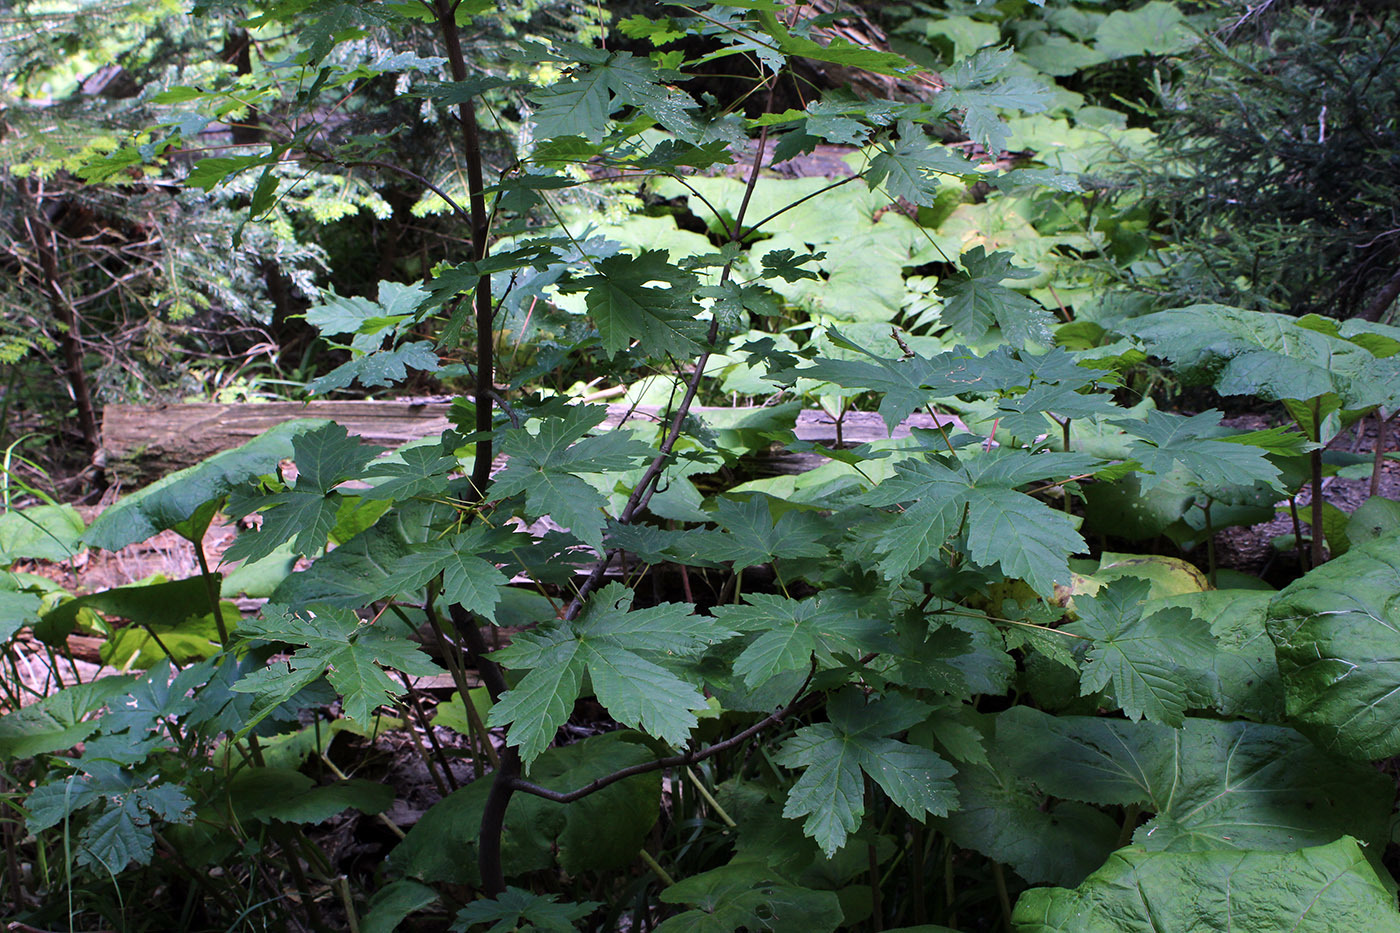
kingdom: Plantae
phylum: Tracheophyta
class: Magnoliopsida
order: Sapindales
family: Sapindaceae
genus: Acer
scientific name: Acer heldreichii
